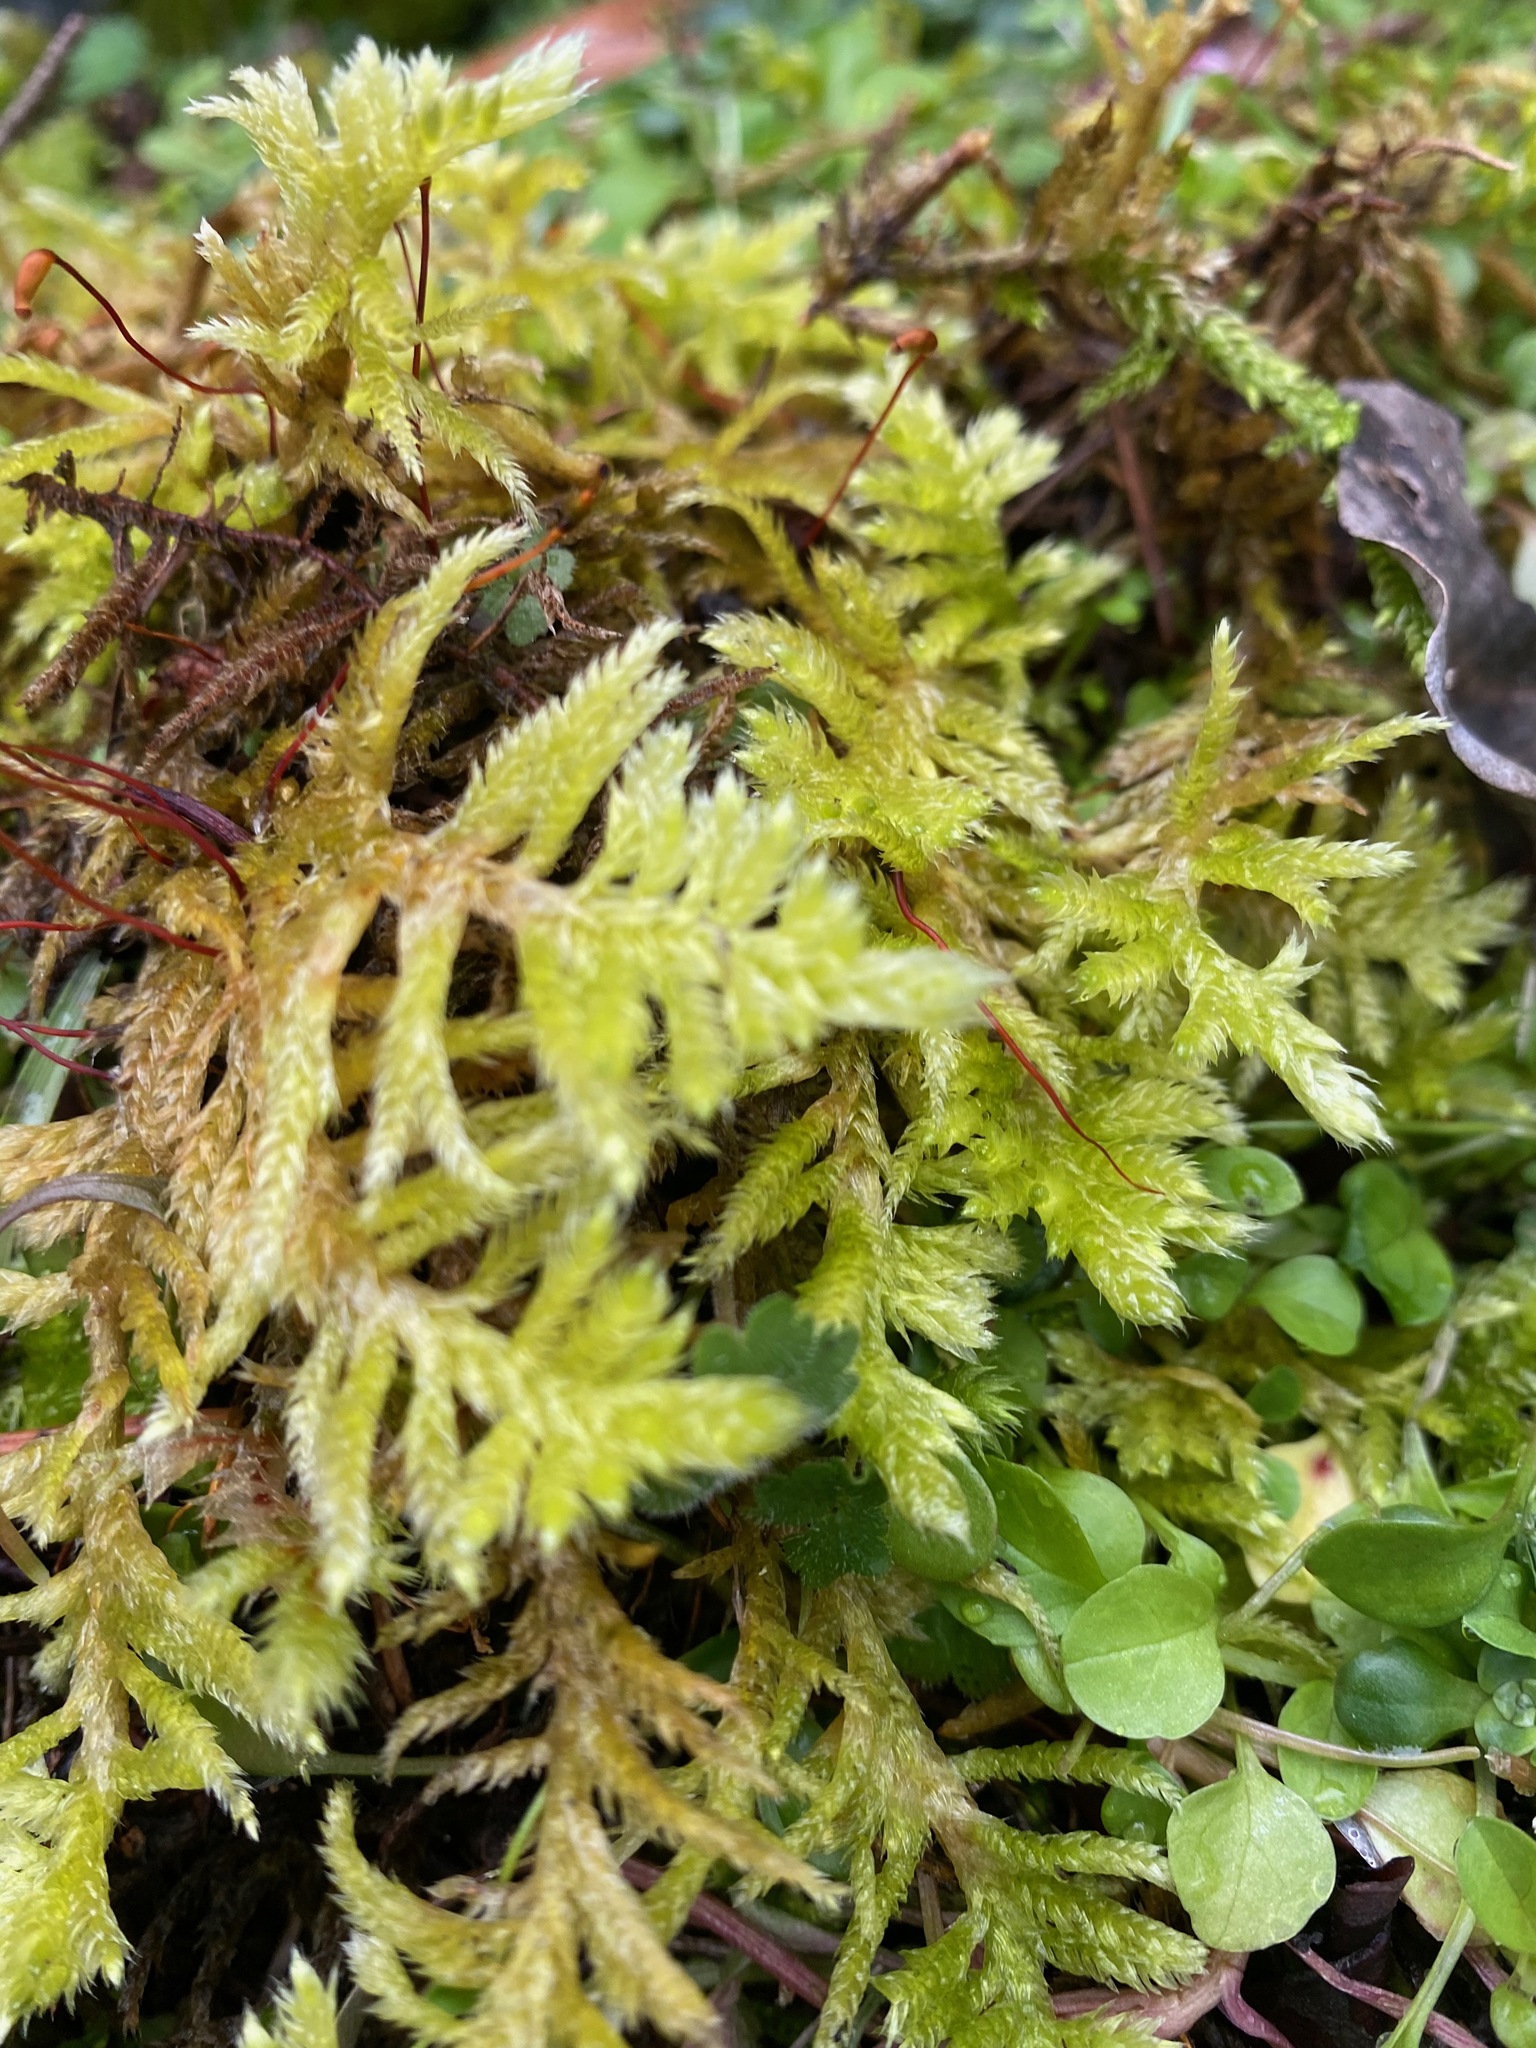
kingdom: Plantae
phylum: Bryophyta
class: Bryopsida
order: Hypnales
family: Brachytheciaceae
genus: Homalothecium
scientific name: Homalothecium megaptilum
